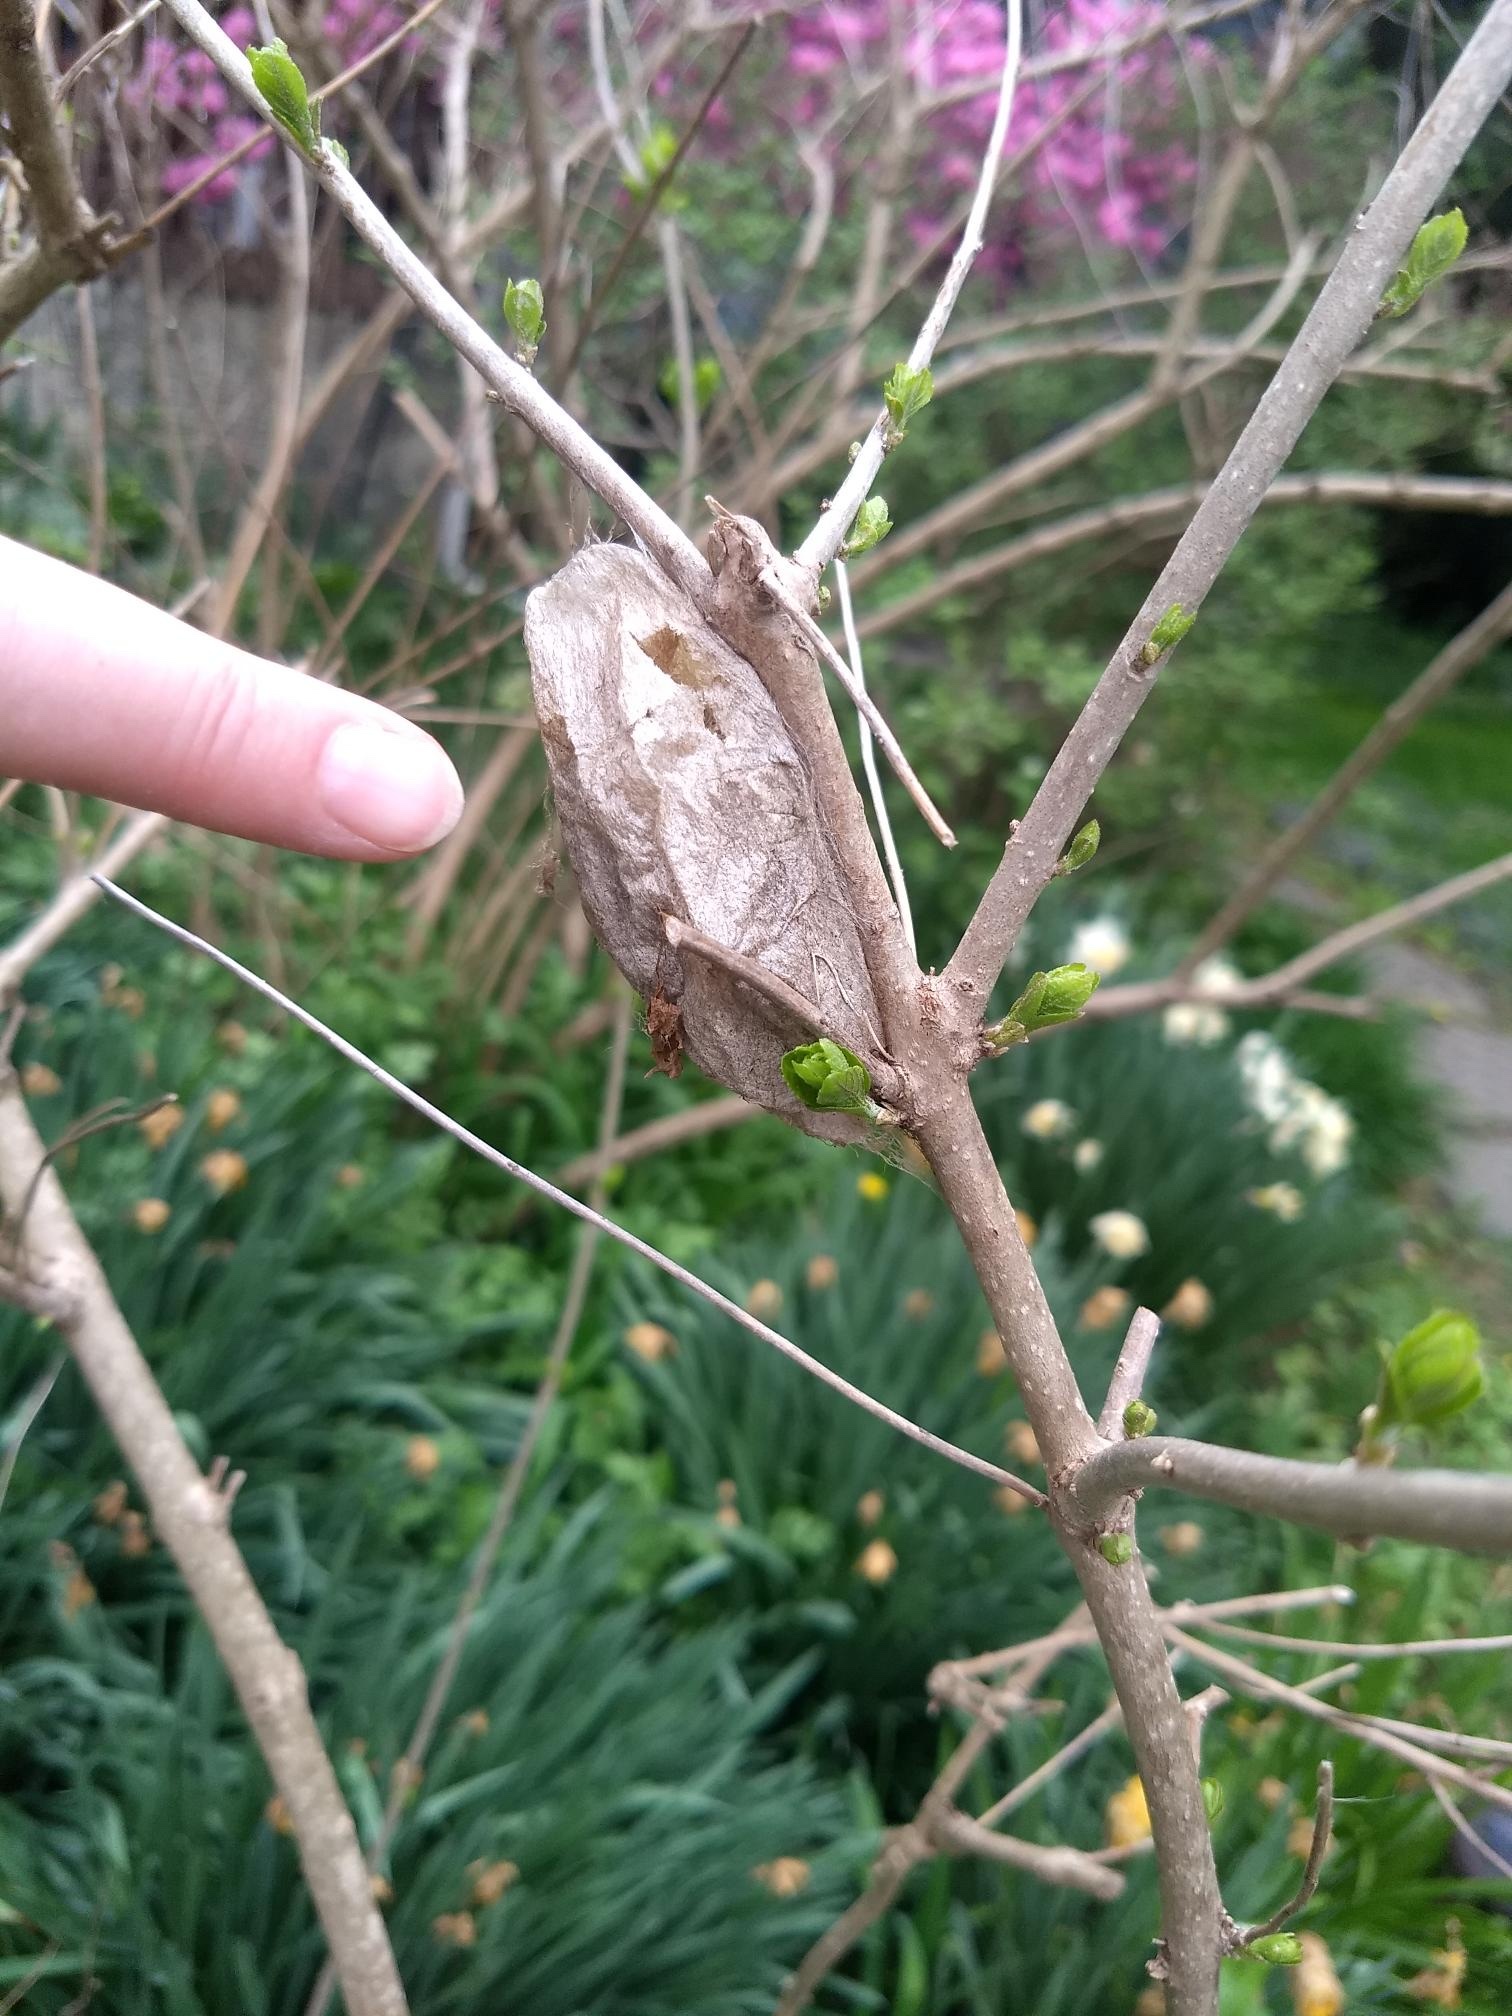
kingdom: Animalia
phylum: Arthropoda
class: Insecta
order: Lepidoptera
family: Saturniidae
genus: Hyalophora
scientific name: Hyalophora cecropia
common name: Cecropia silkmoth
